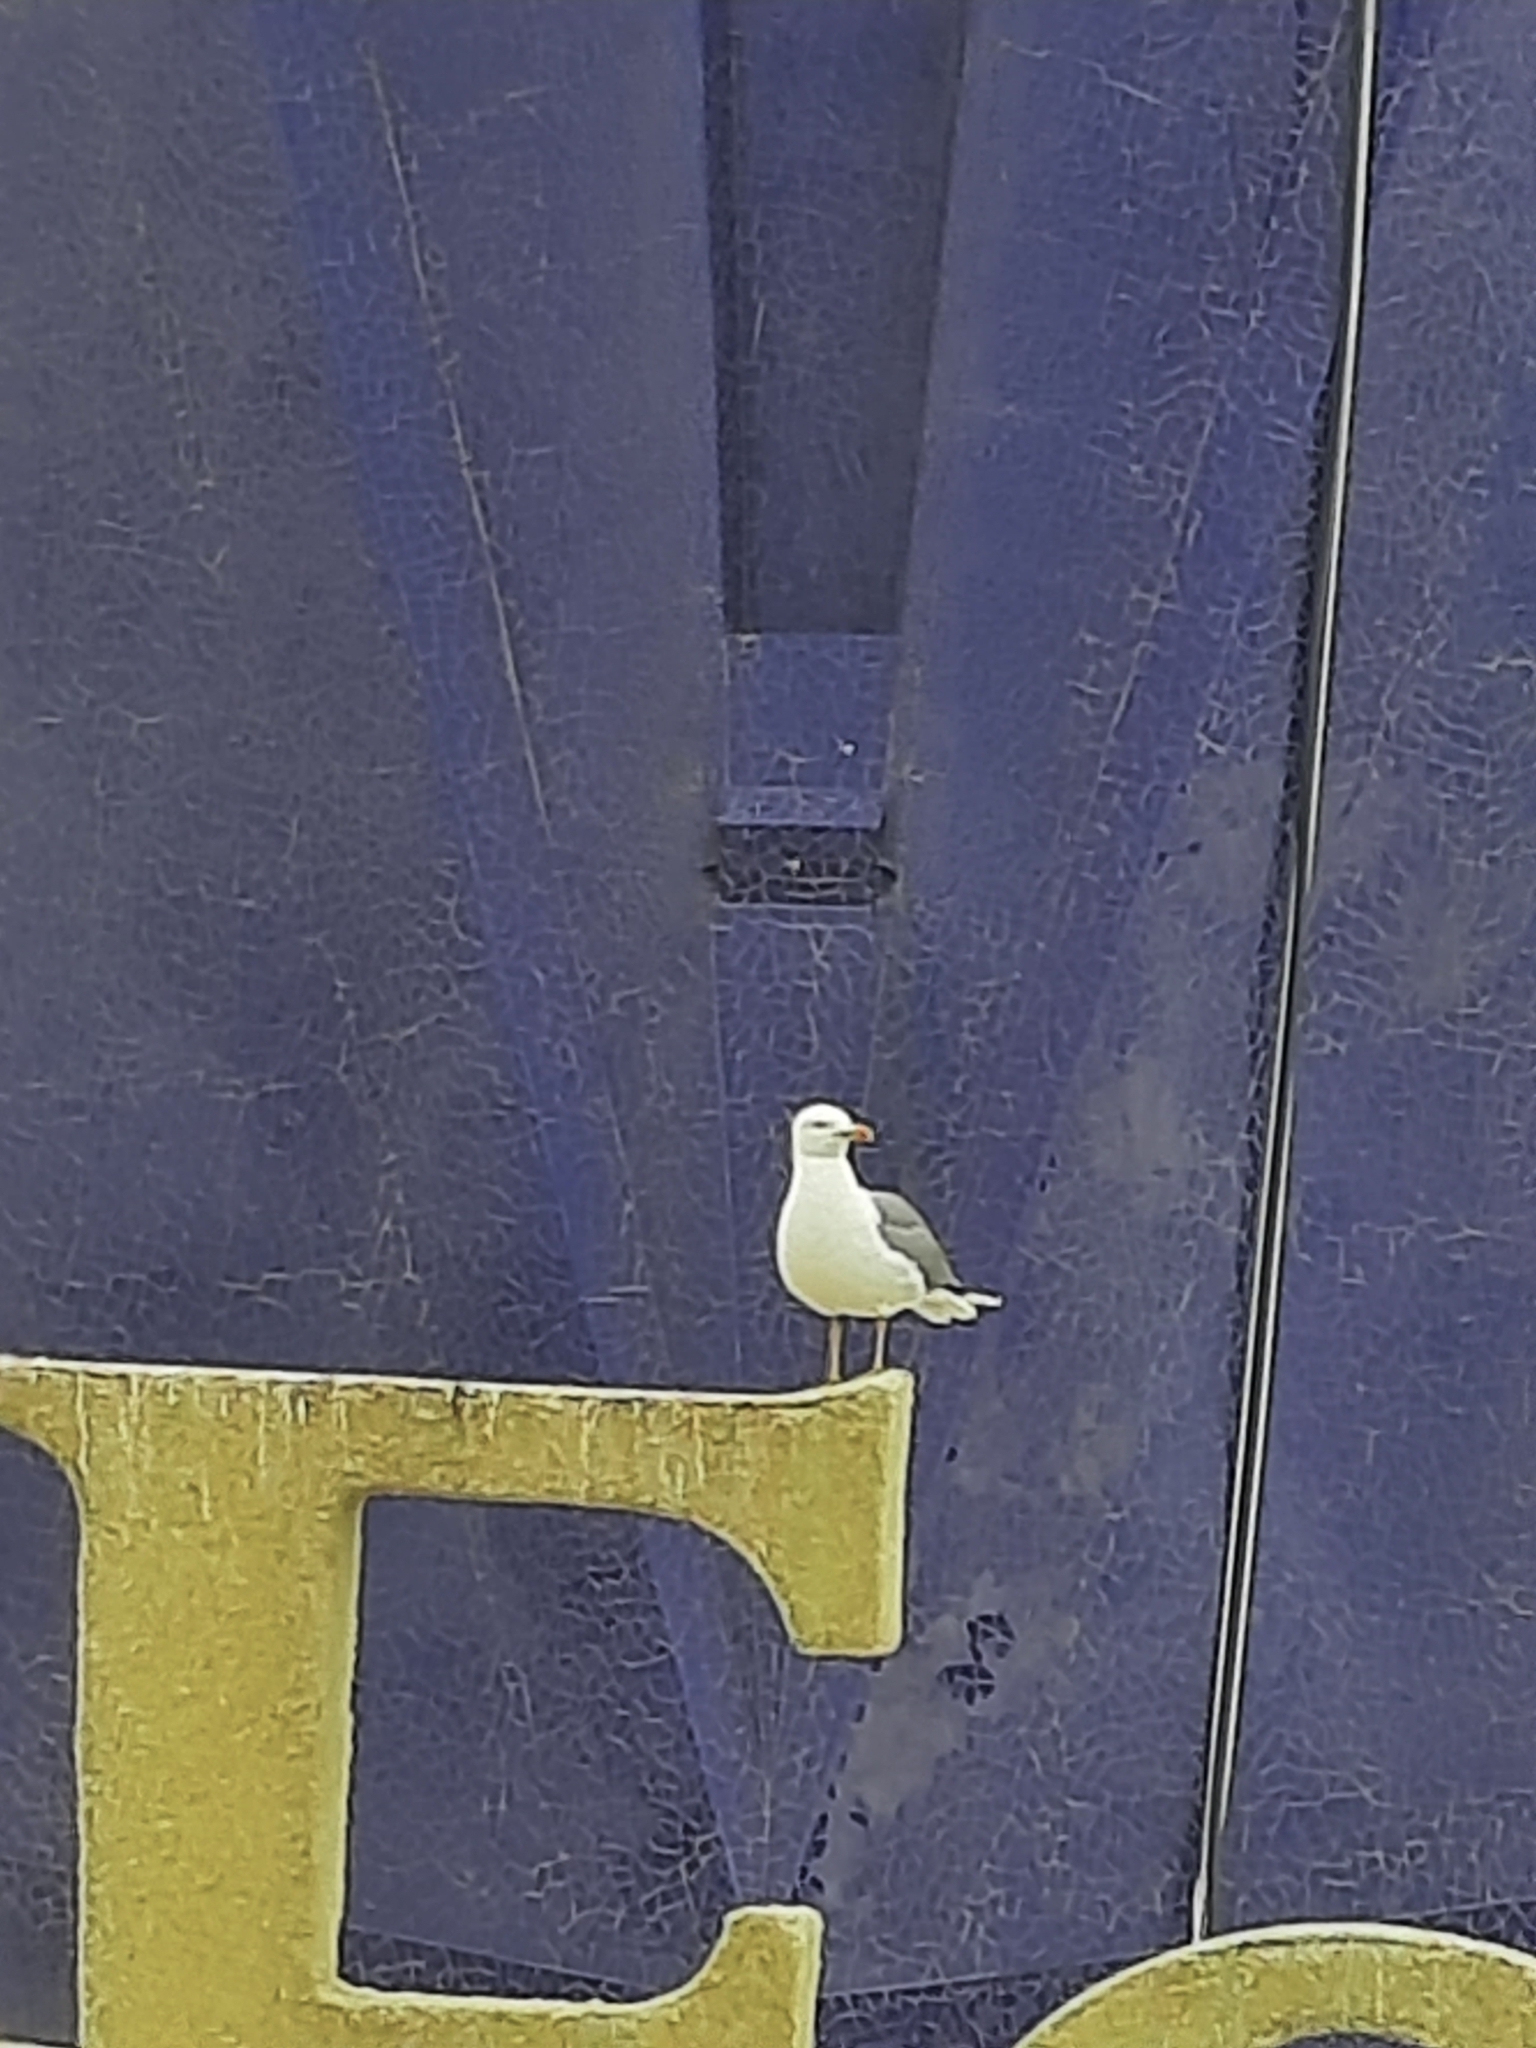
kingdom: Animalia
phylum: Chordata
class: Aves
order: Charadriiformes
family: Laridae
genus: Larus
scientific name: Larus michahellis
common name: Yellow-legged gull
